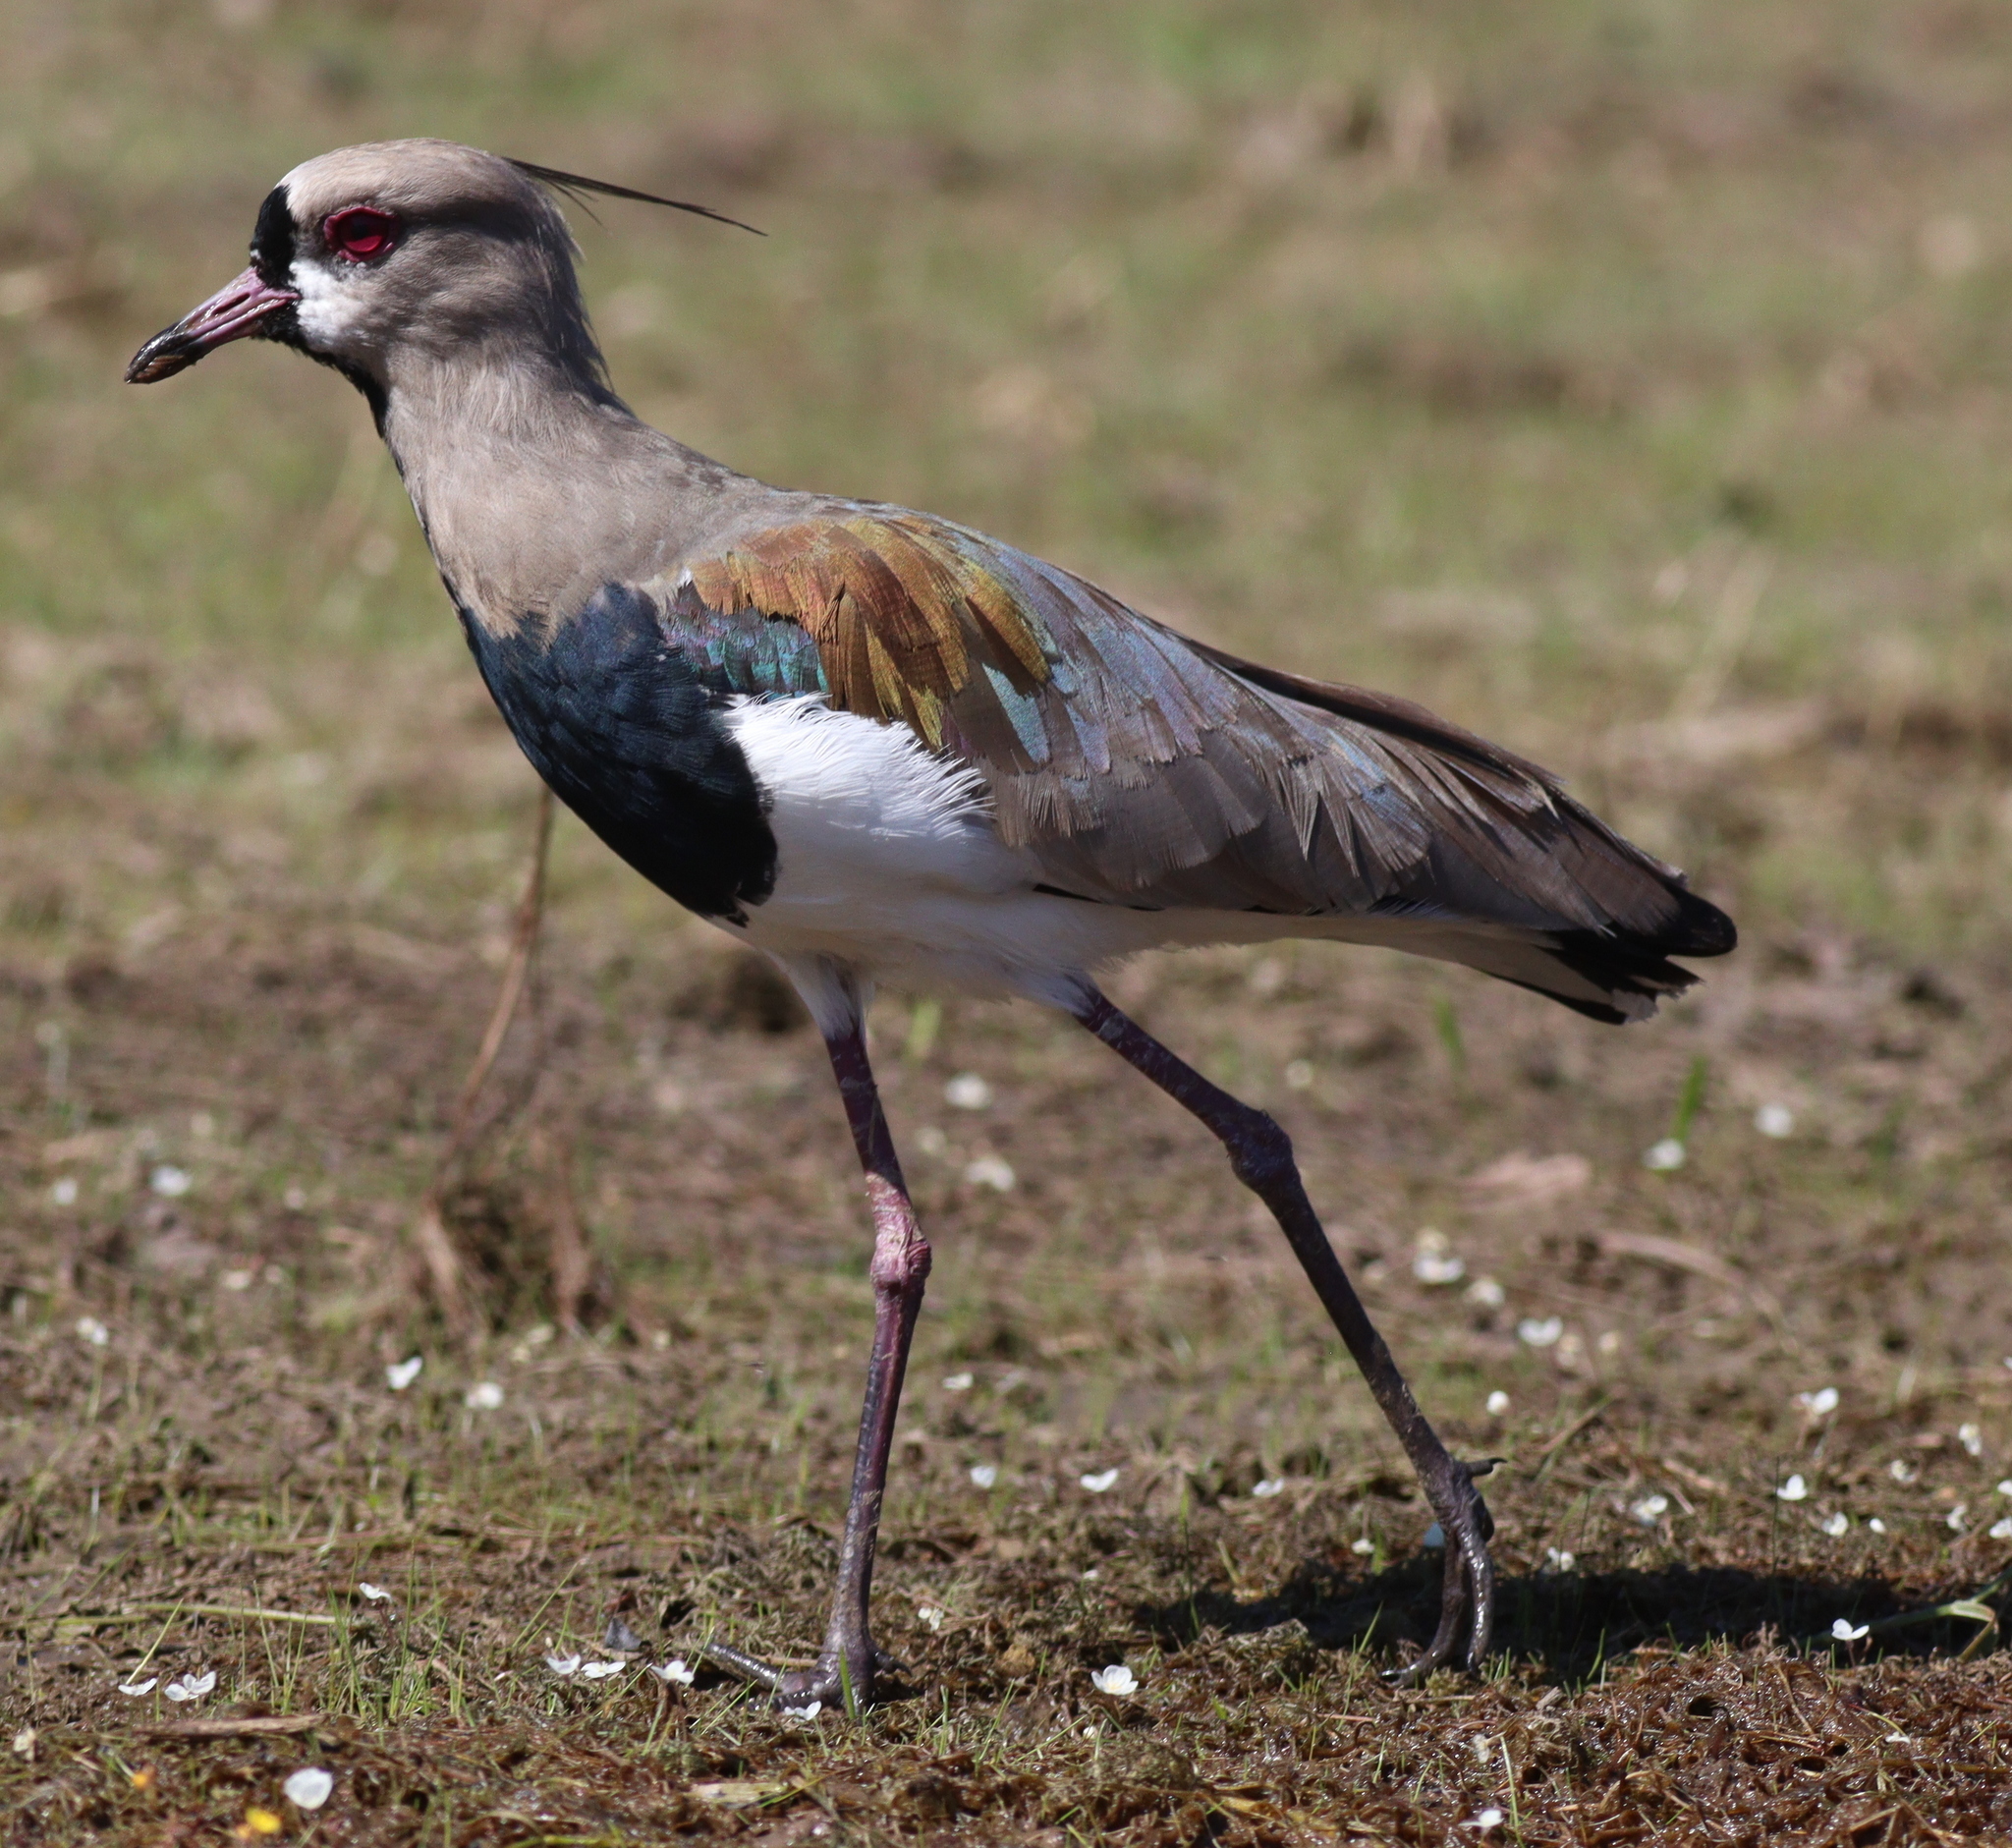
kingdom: Animalia
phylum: Chordata
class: Aves
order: Charadriiformes
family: Charadriidae
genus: Vanellus
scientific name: Vanellus chilensis
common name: Southern lapwing
